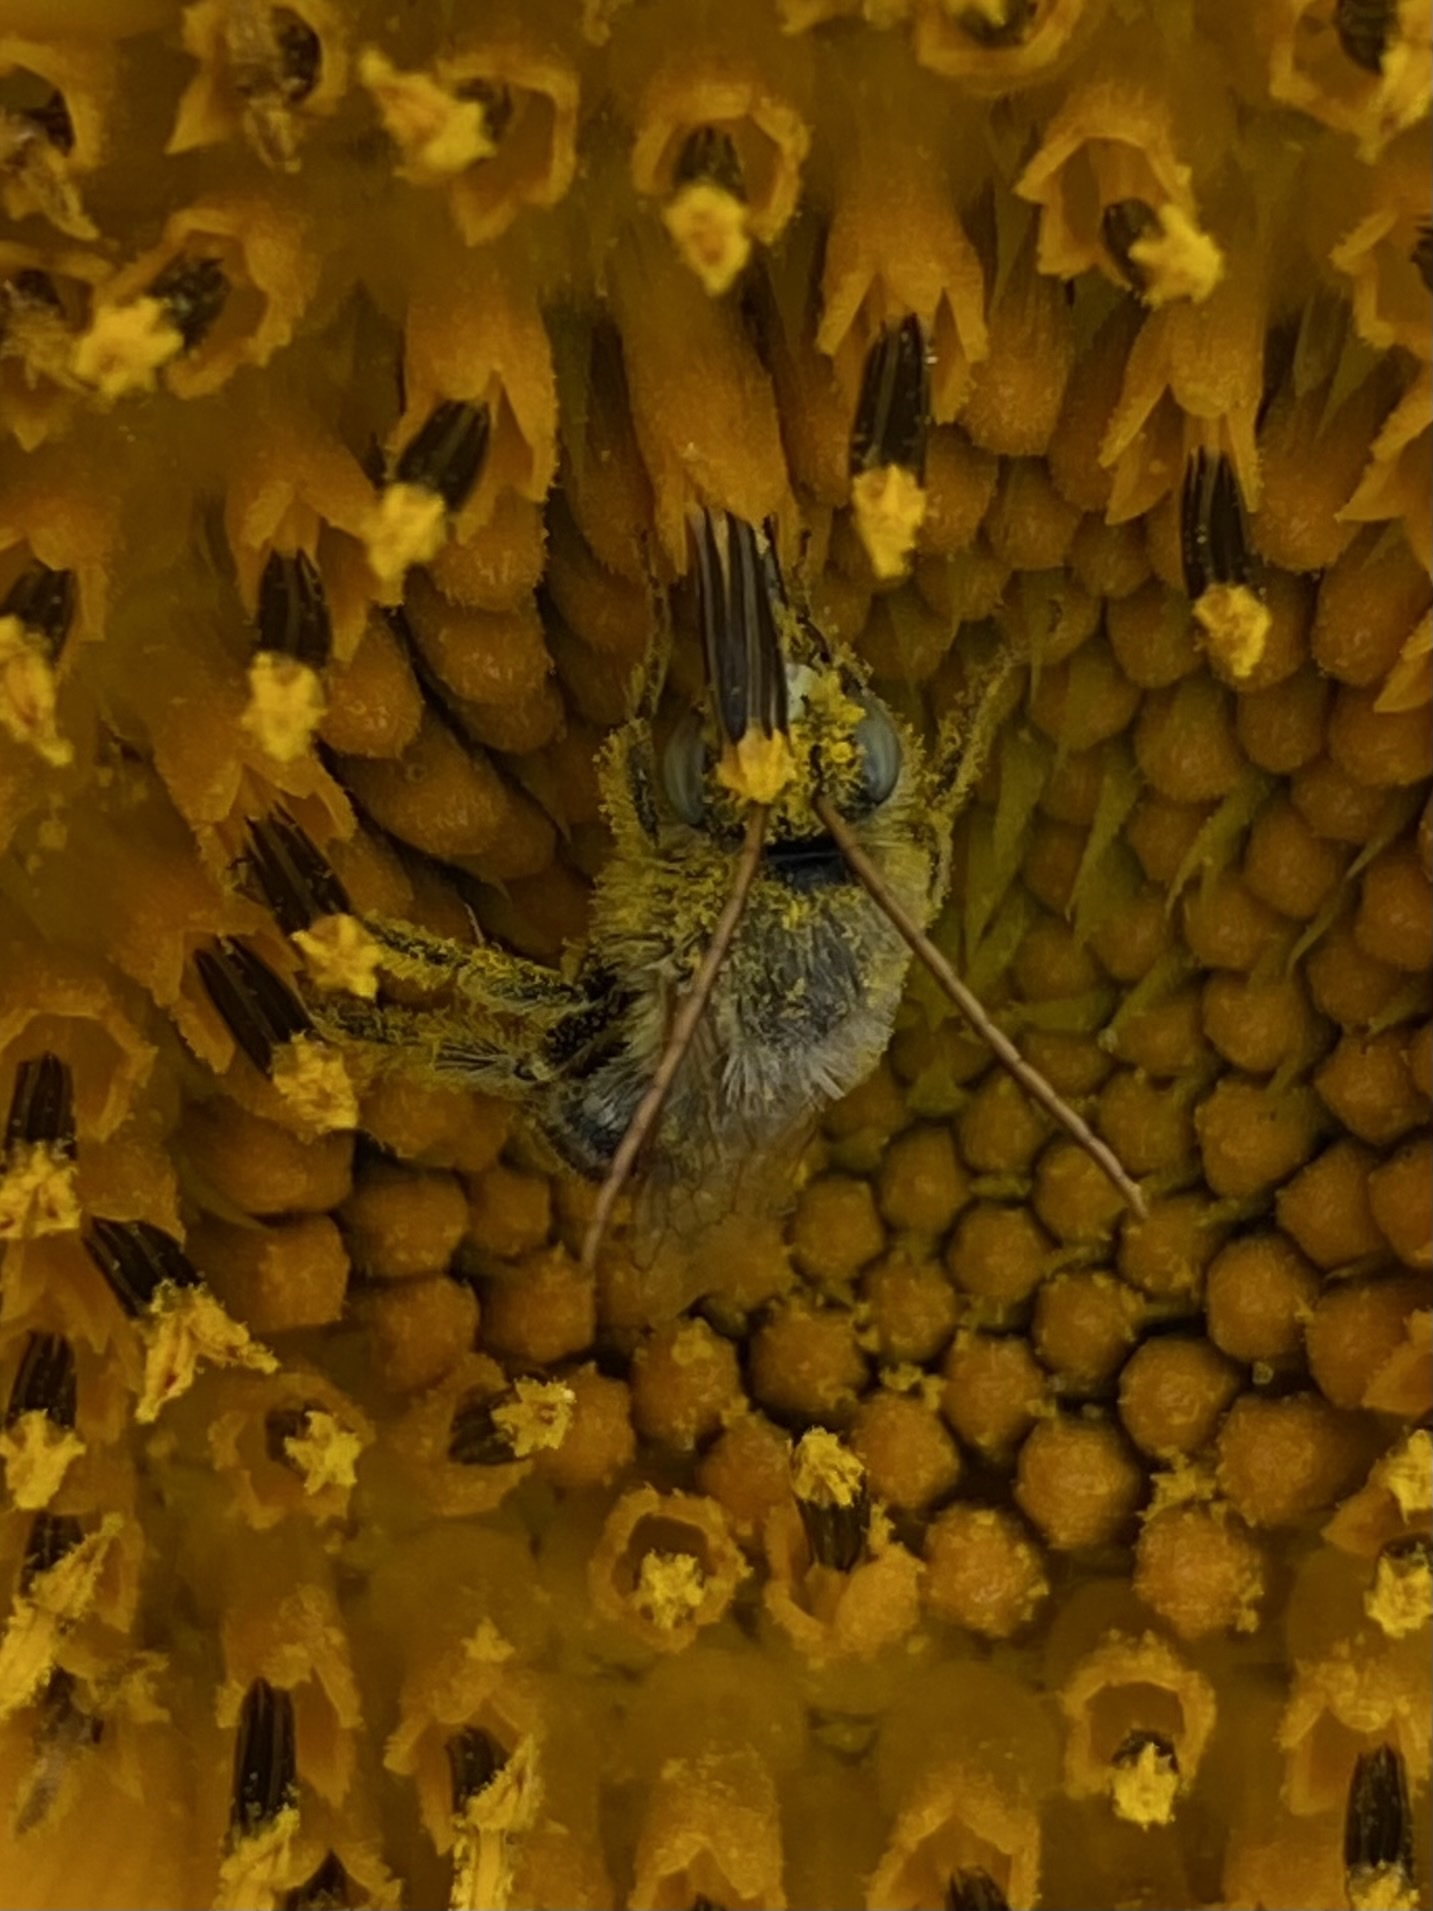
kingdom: Animalia
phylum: Arthropoda
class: Insecta
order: Hymenoptera
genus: Eumelissodes
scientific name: Eumelissodes
